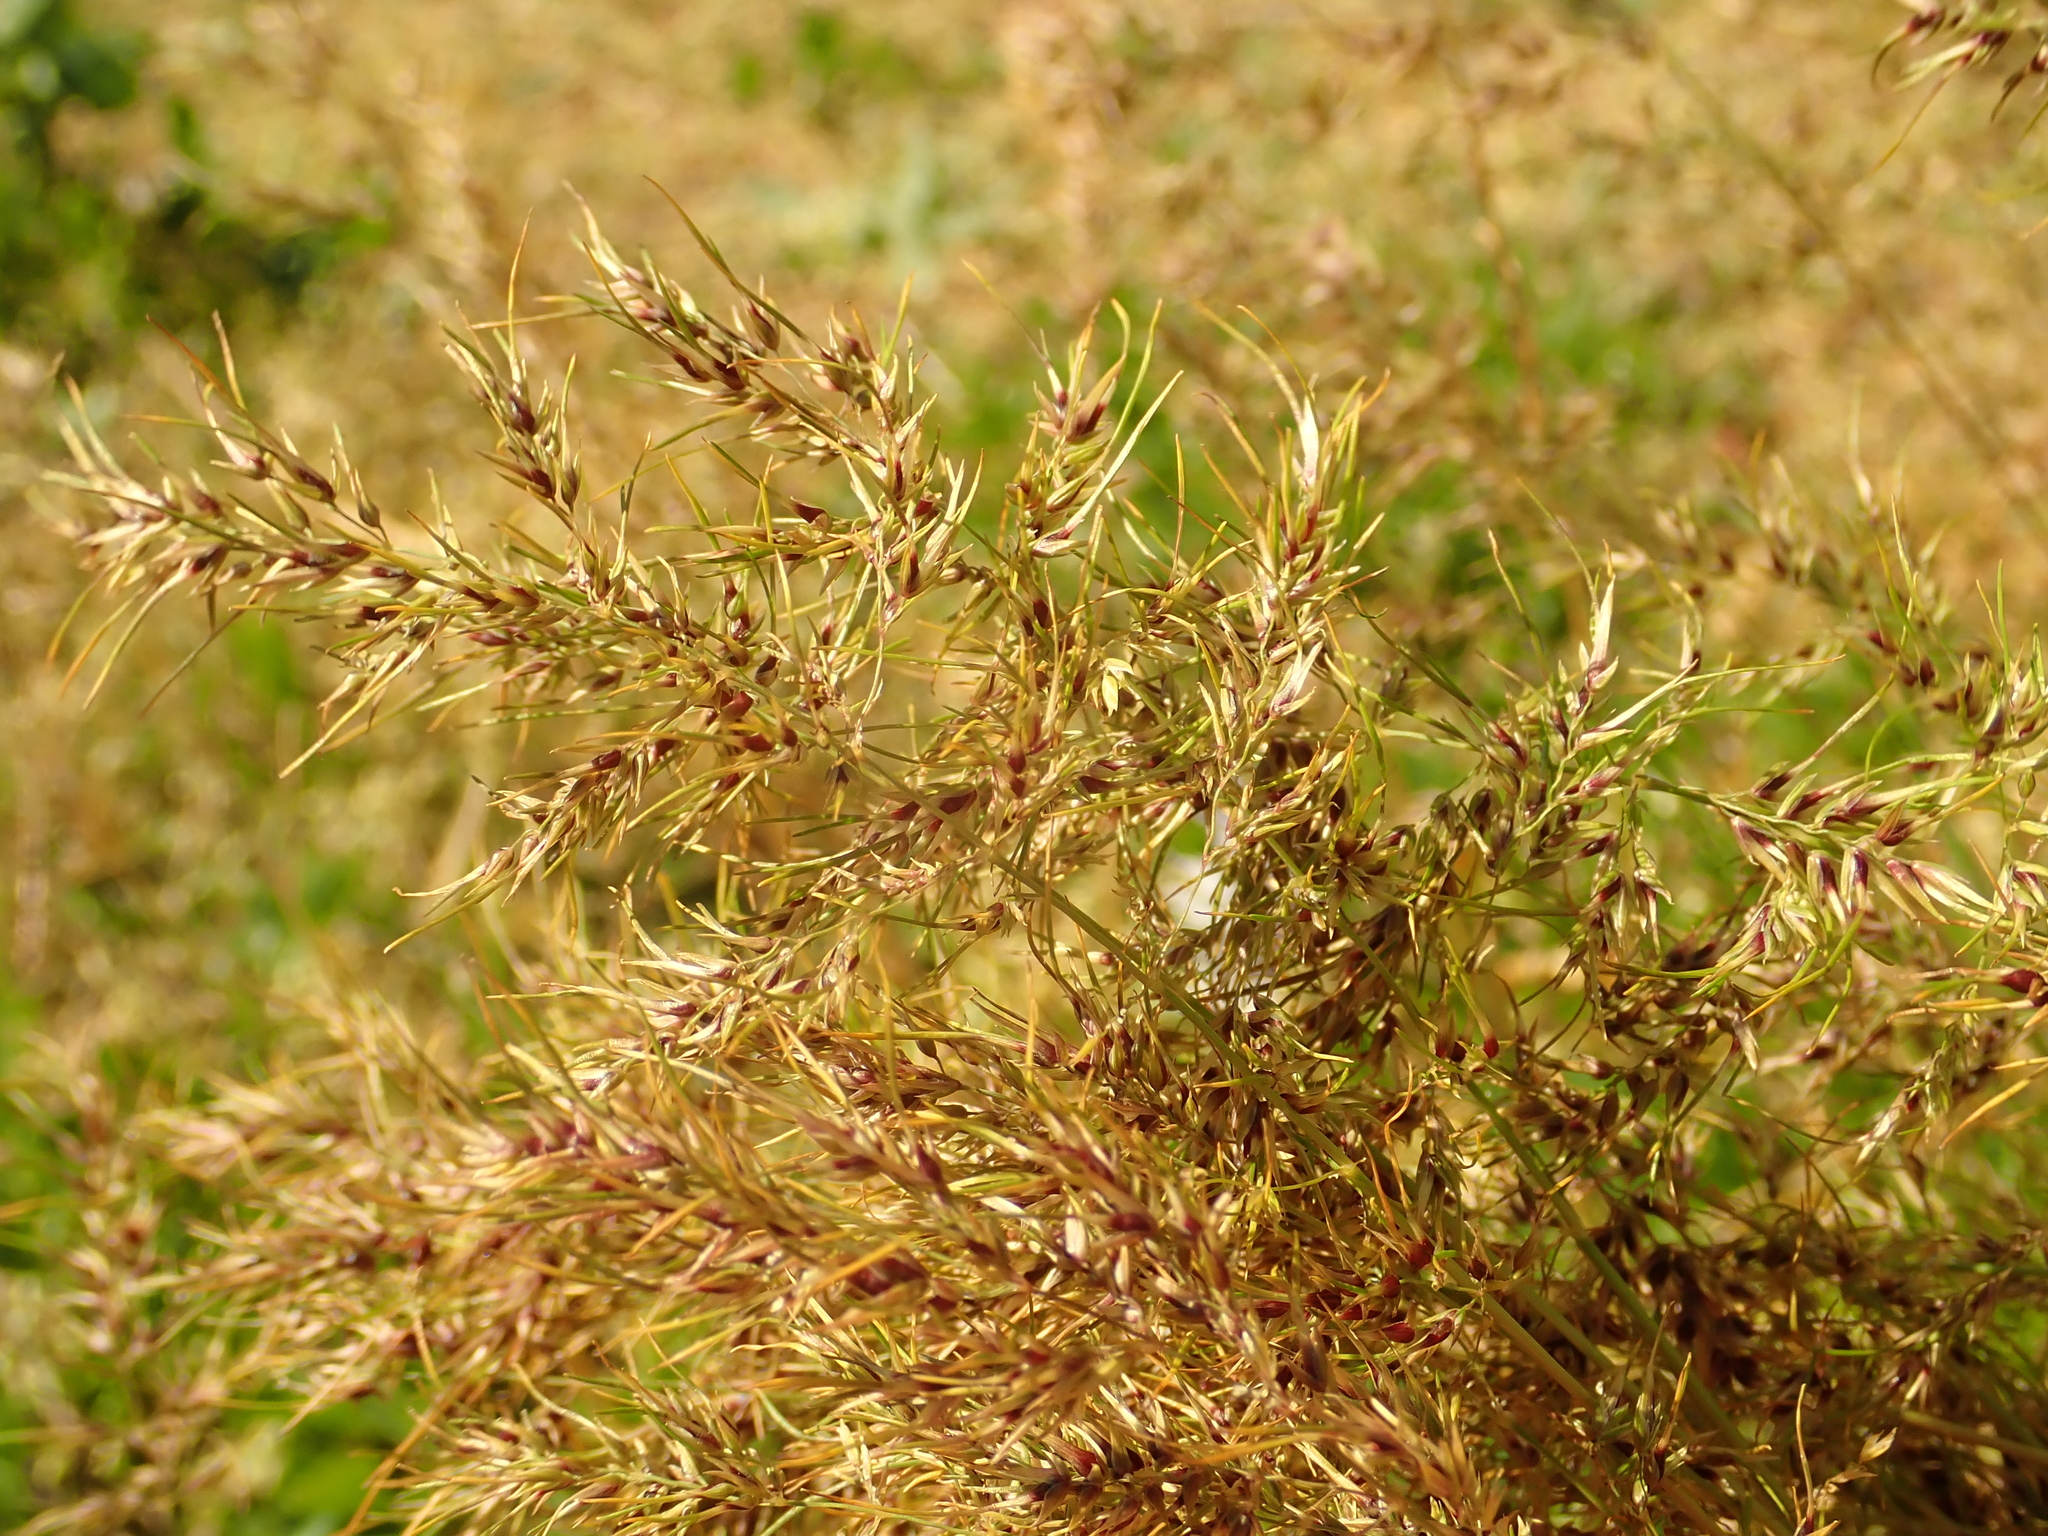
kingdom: Plantae
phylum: Tracheophyta
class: Liliopsida
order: Poales
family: Poaceae
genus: Poa
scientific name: Poa bulbosa
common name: Bulbous bluegrass
